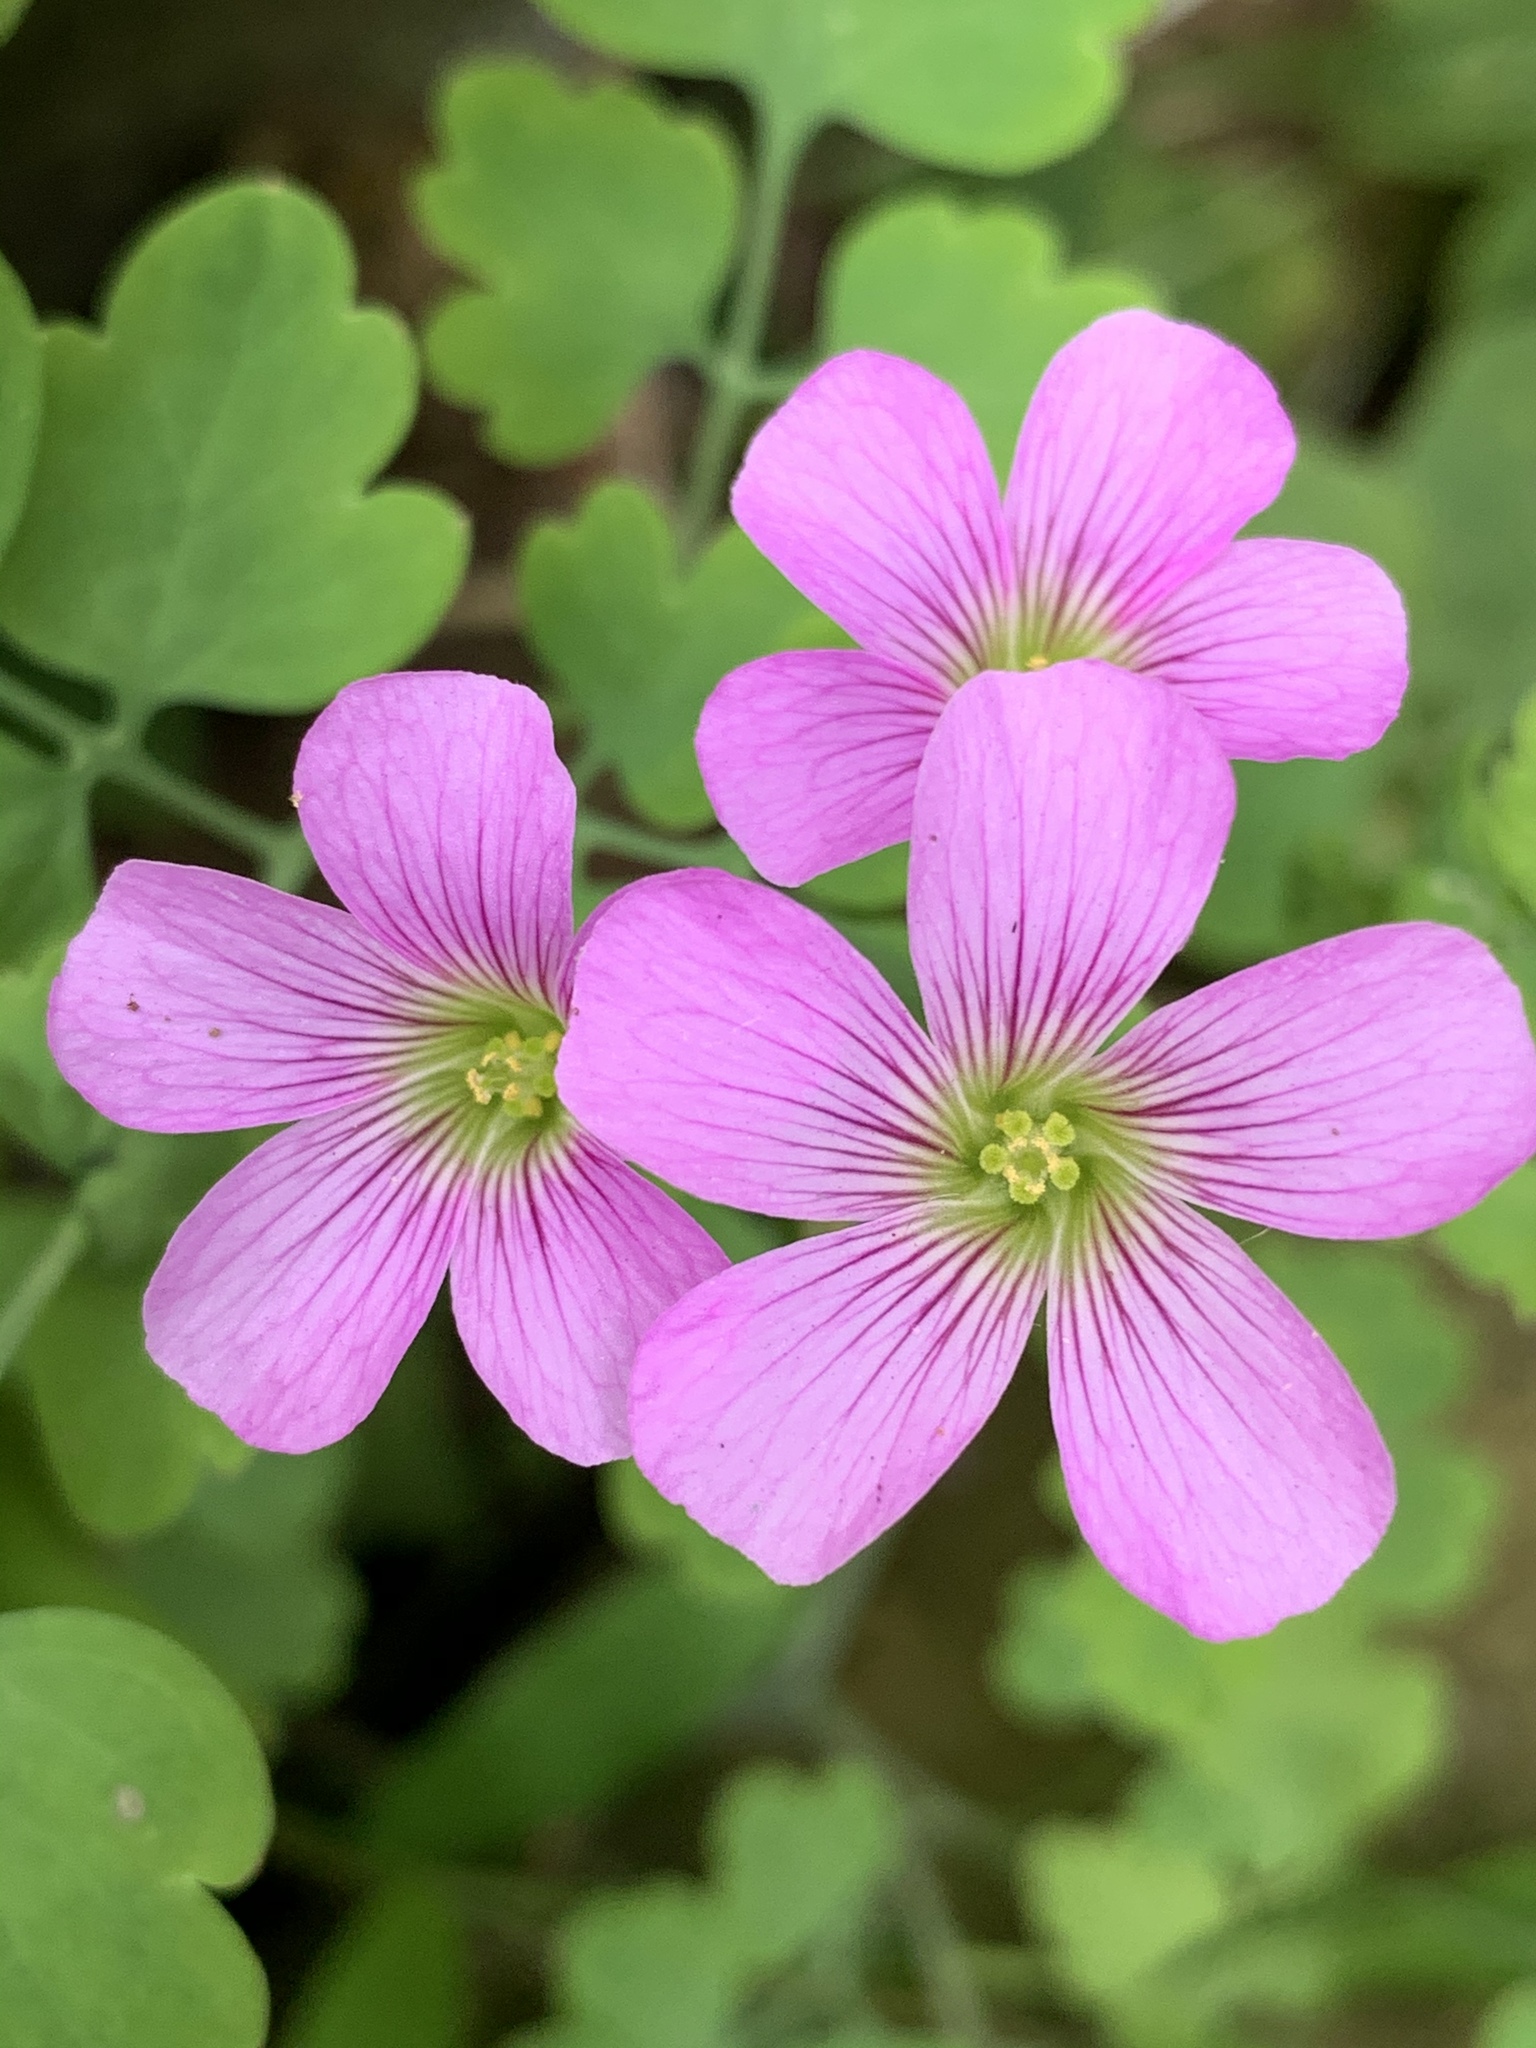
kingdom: Plantae
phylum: Tracheophyta
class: Magnoliopsida
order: Oxalidales
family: Oxalidaceae
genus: Oxalis
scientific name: Oxalis debilis
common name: Large-flowered pink-sorrel
